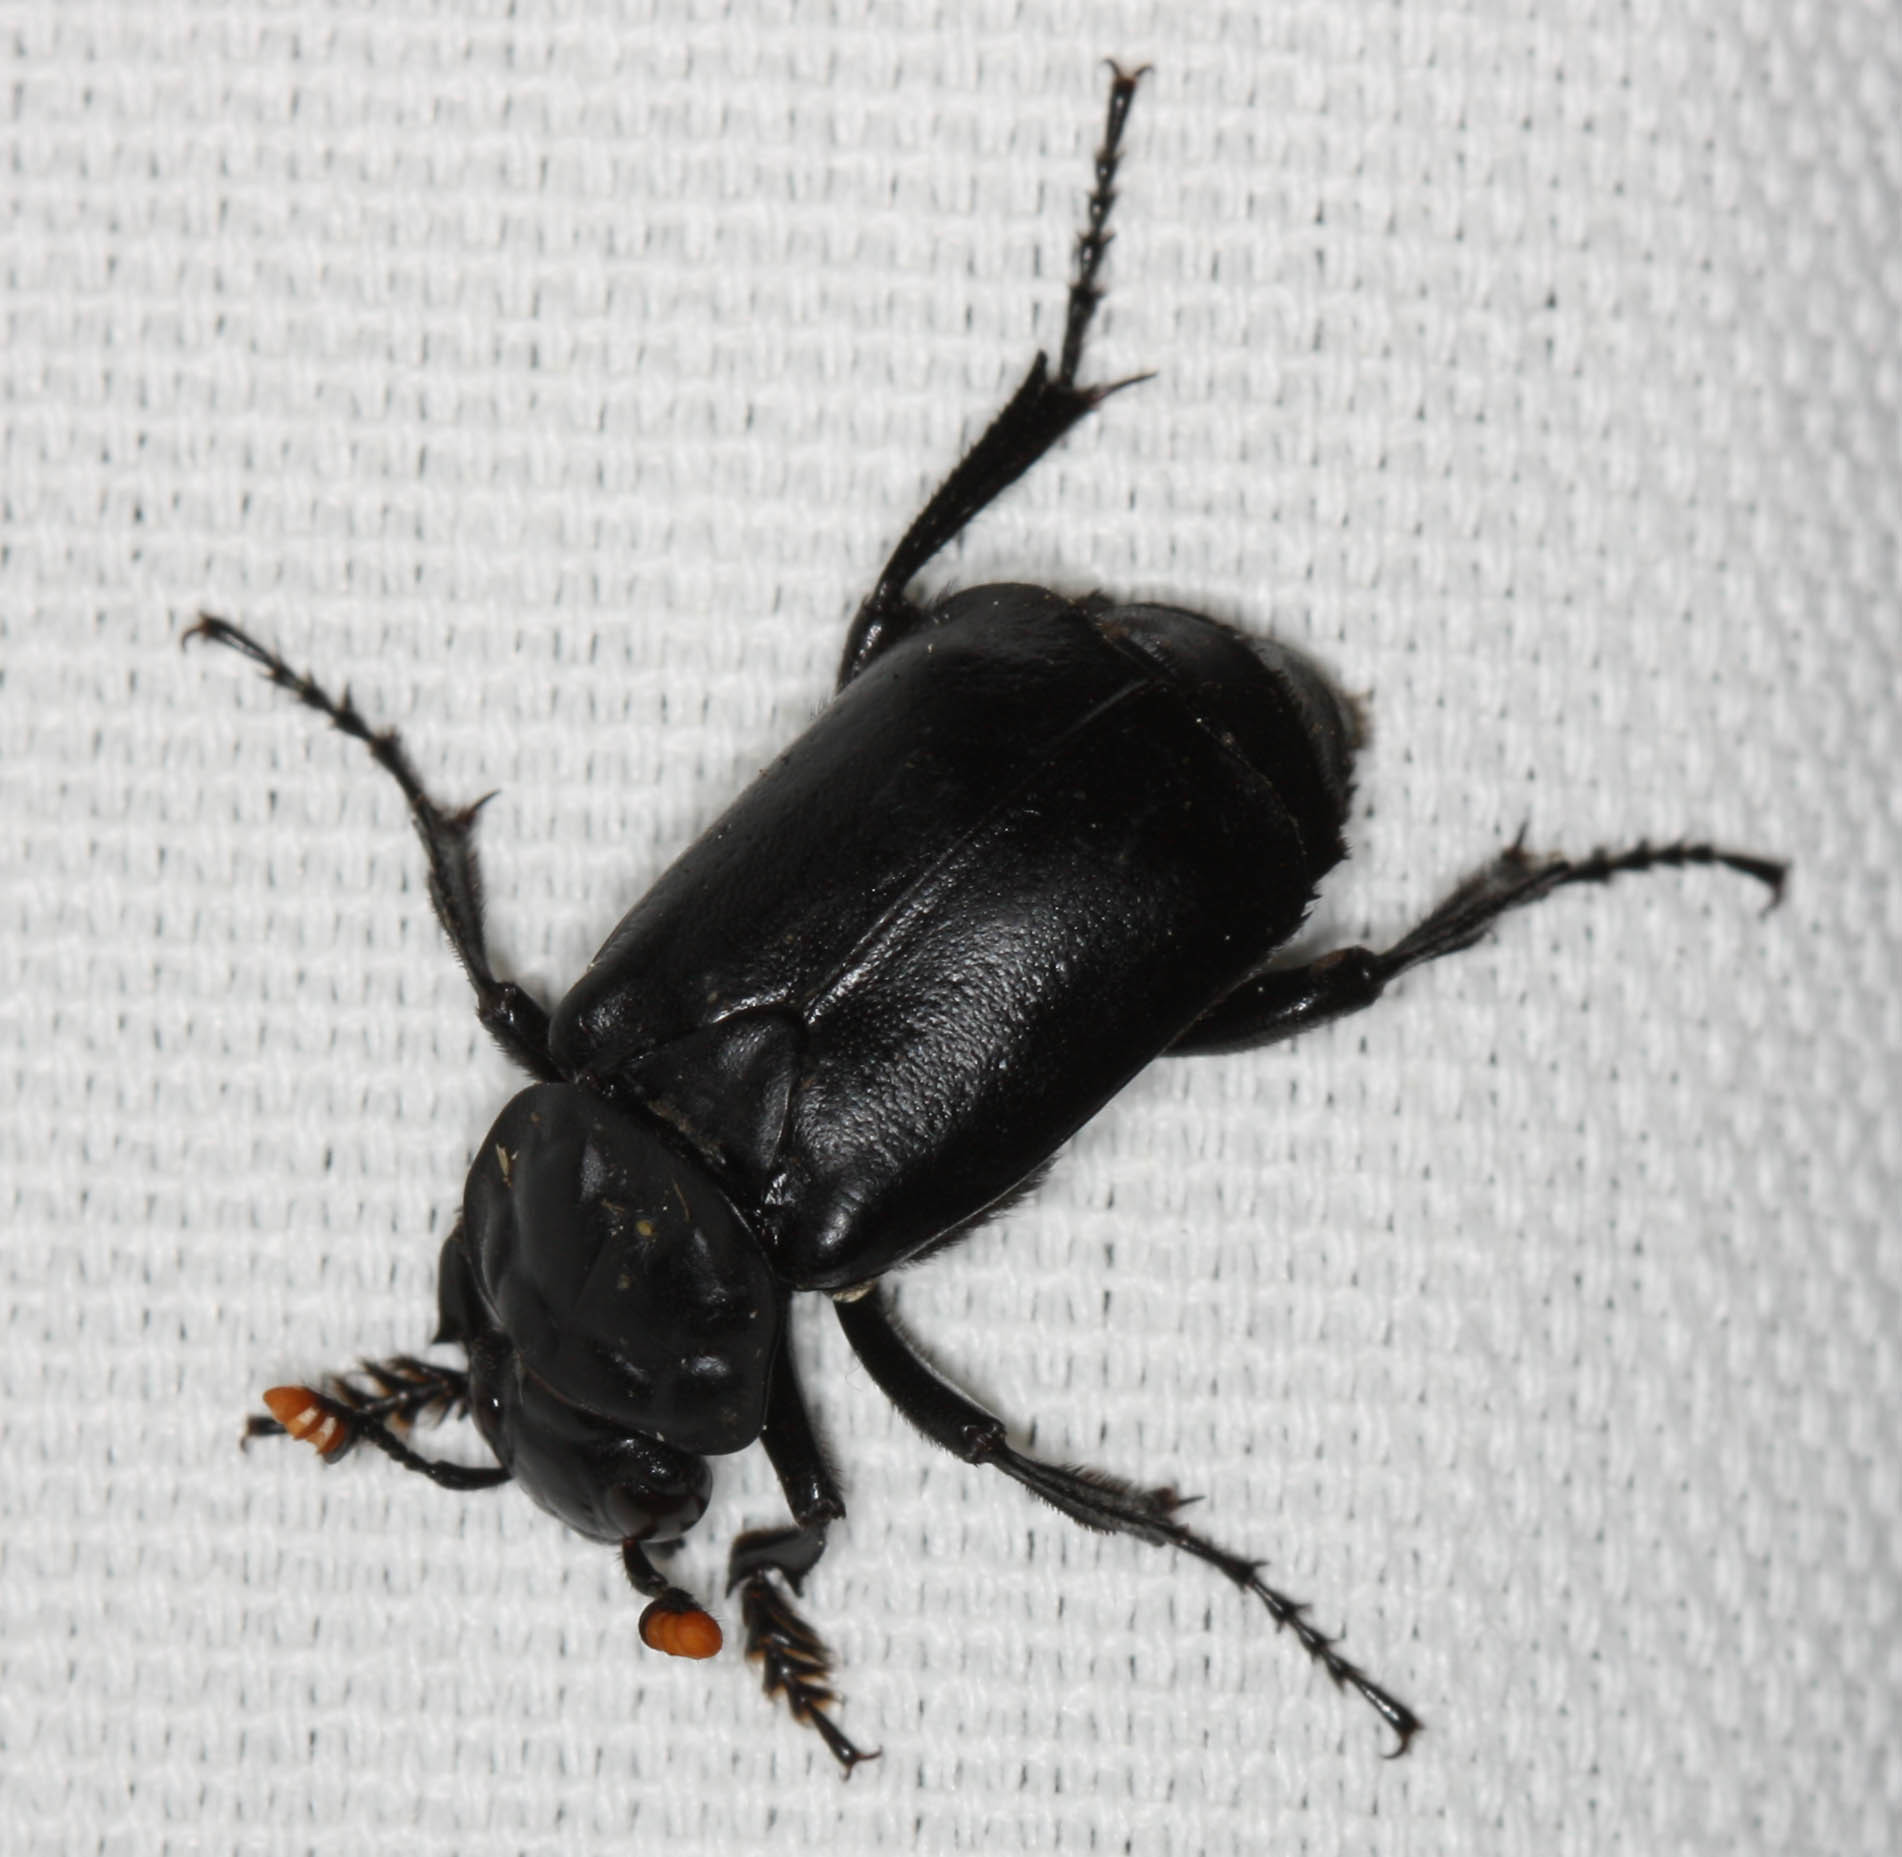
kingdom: Animalia
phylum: Arthropoda
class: Insecta
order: Coleoptera
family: Staphylinidae
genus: Nicrophorus
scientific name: Nicrophorus nigrita
